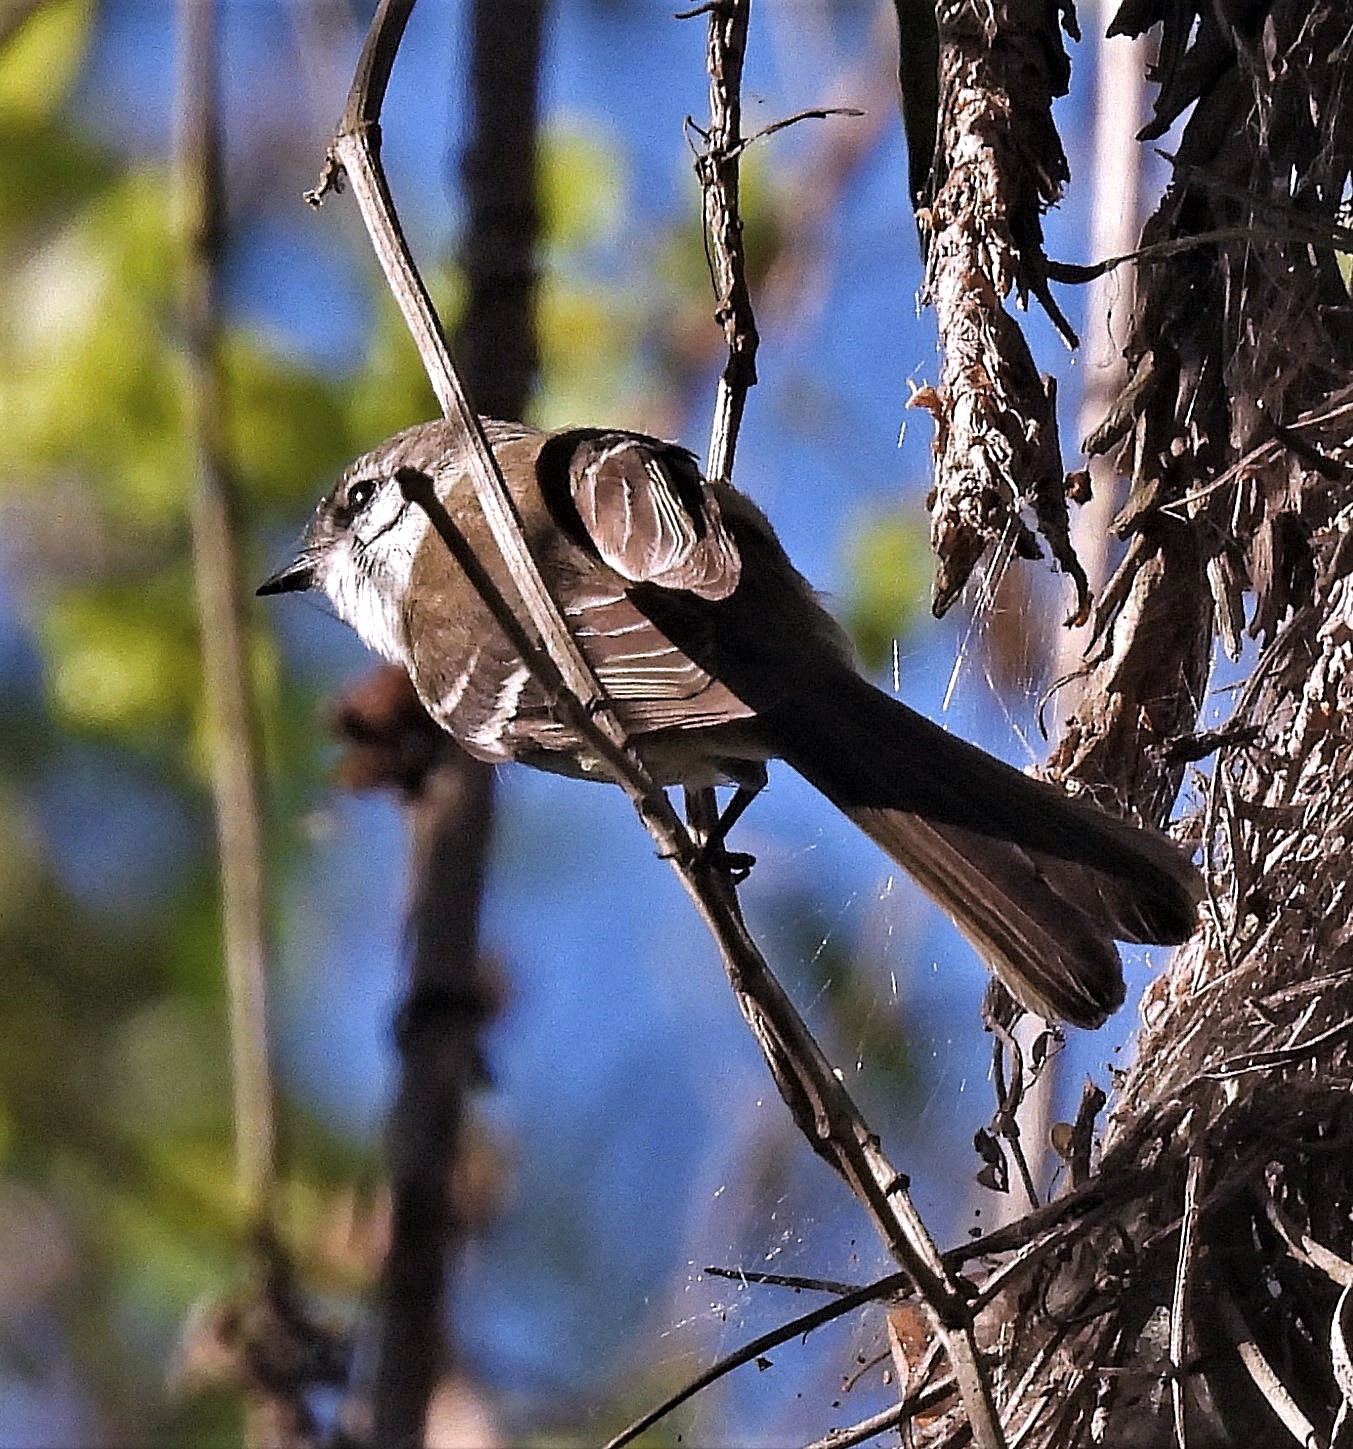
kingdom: Animalia
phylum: Chordata
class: Aves
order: Passeriformes
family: Tyrannidae
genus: Mecocerculus
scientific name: Mecocerculus leucophrys
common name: White-throated tyrannulet
